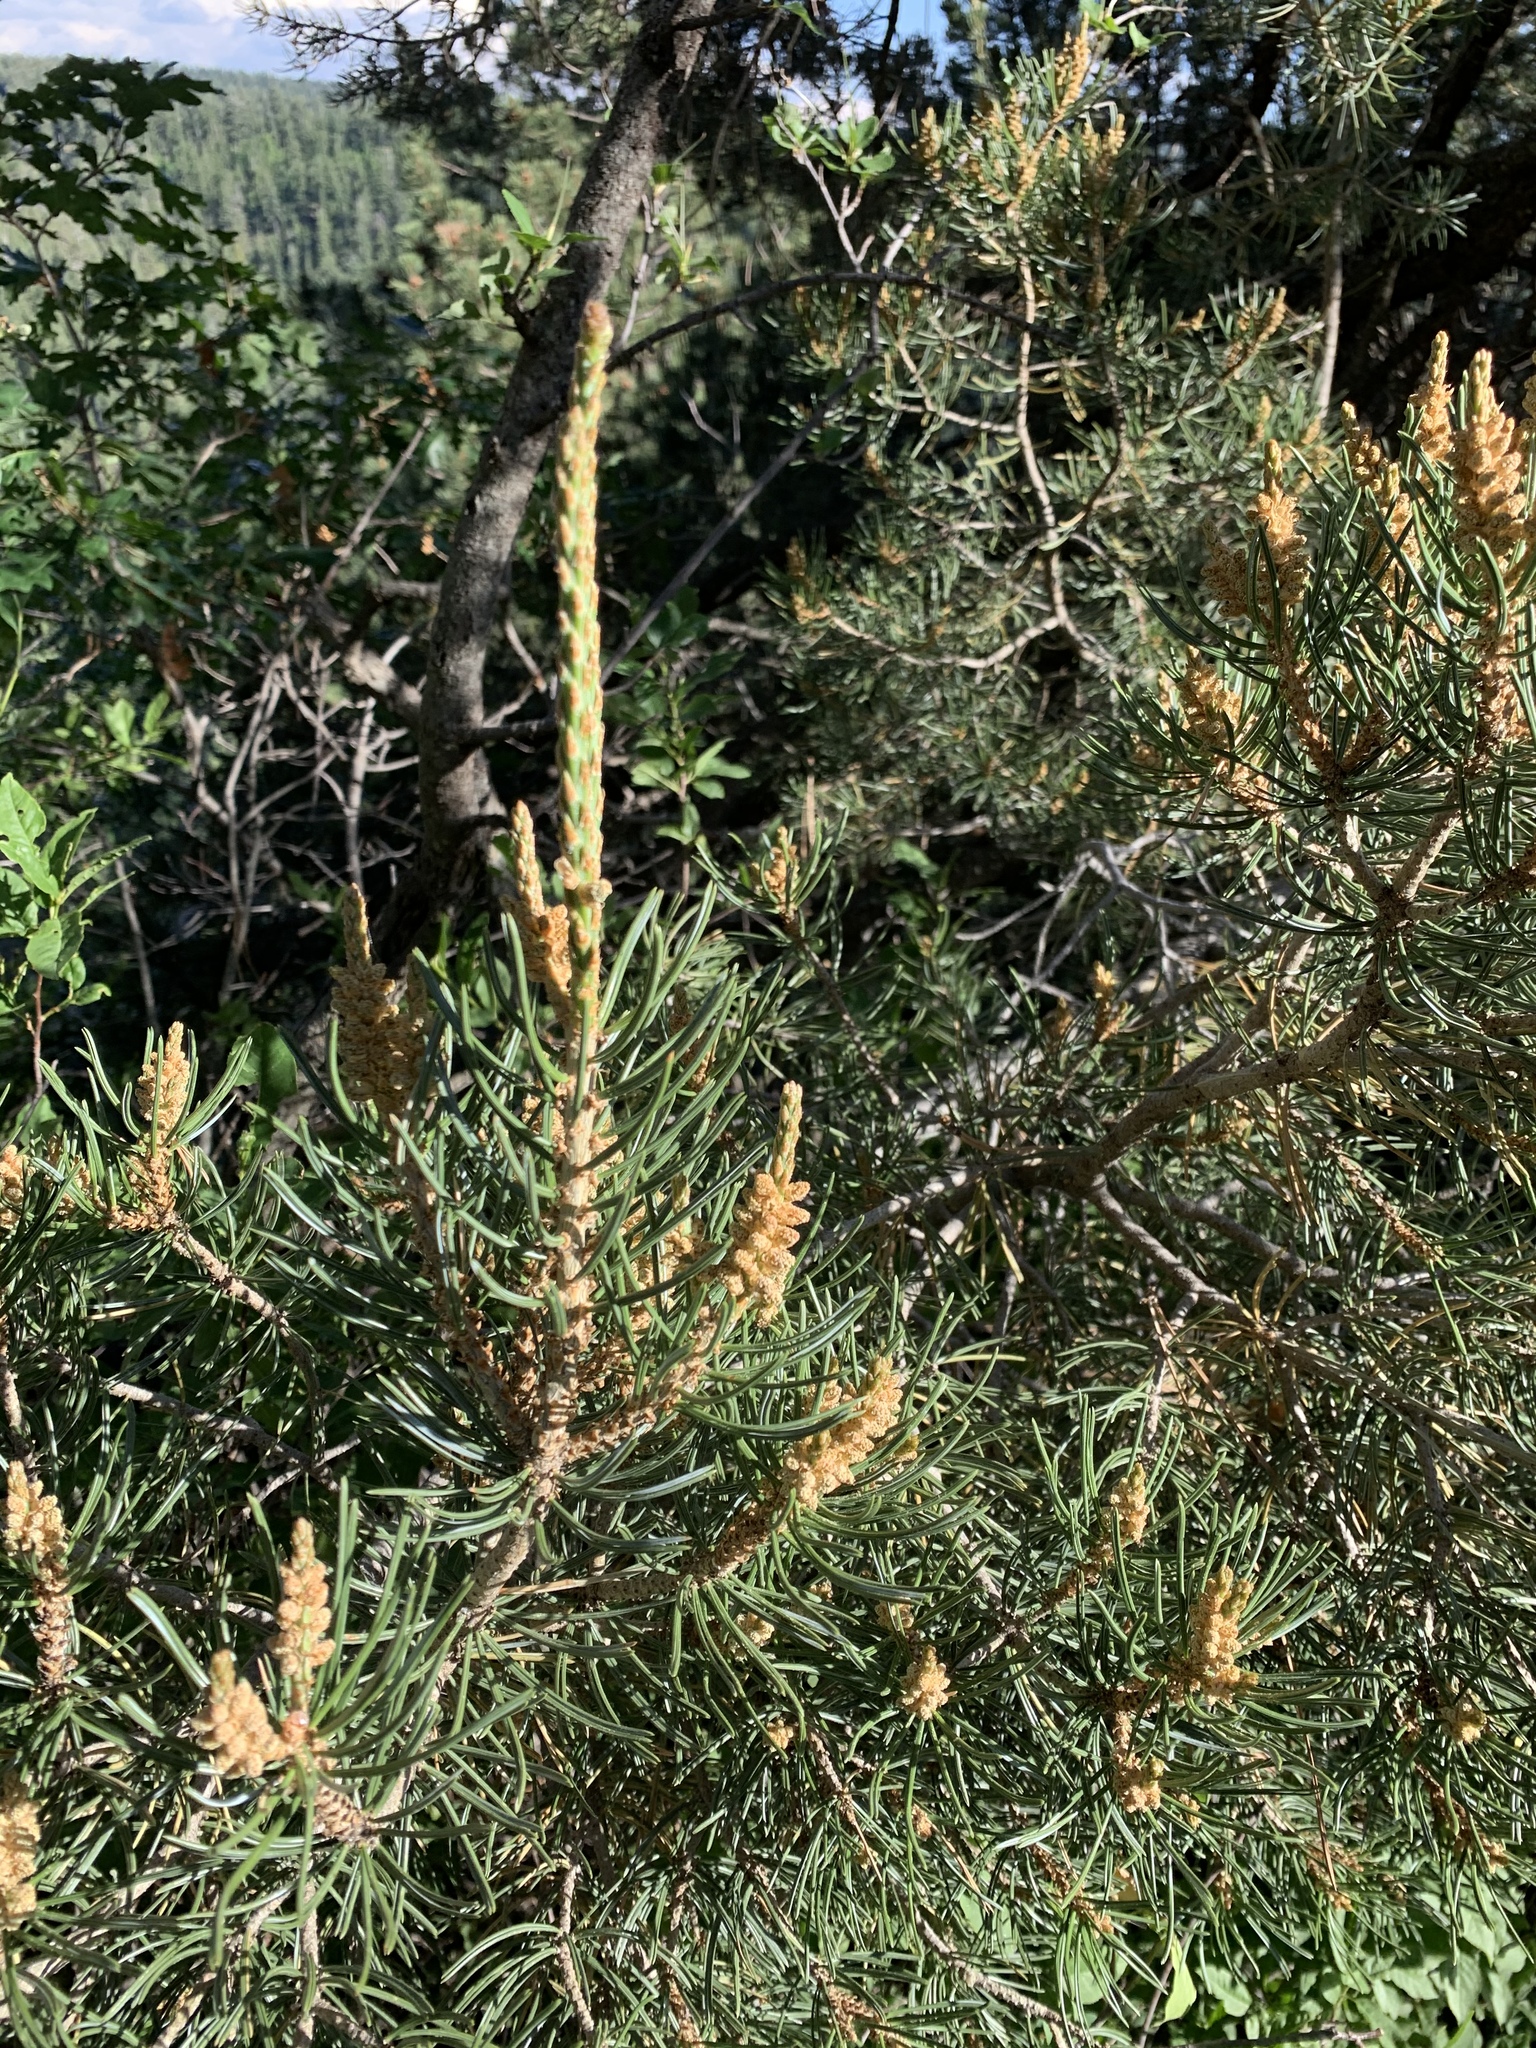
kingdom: Plantae
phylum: Tracheophyta
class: Pinopsida
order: Pinales
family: Pinaceae
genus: Pinus
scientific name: Pinus edulis
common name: Colorado pinyon
